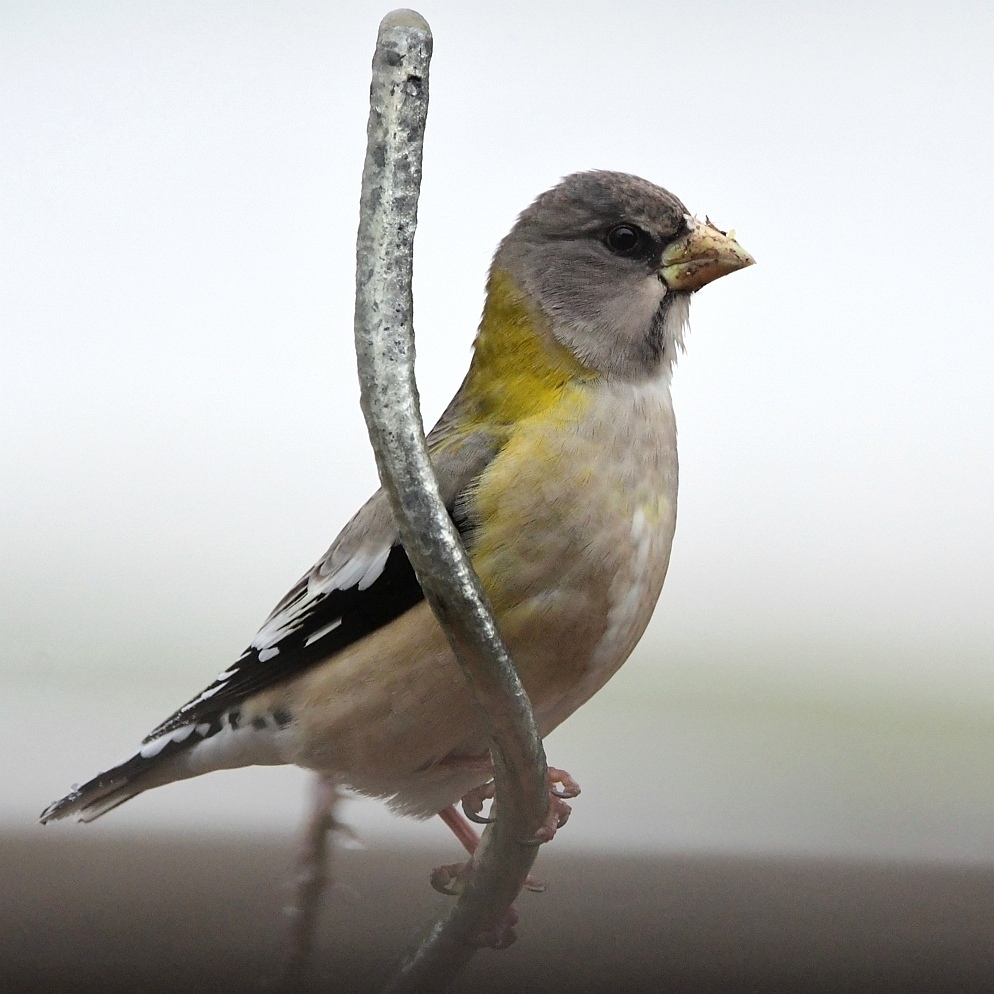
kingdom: Animalia
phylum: Chordata
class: Aves
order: Passeriformes
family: Fringillidae
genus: Hesperiphona
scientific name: Hesperiphona vespertina
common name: Evening grosbeak
